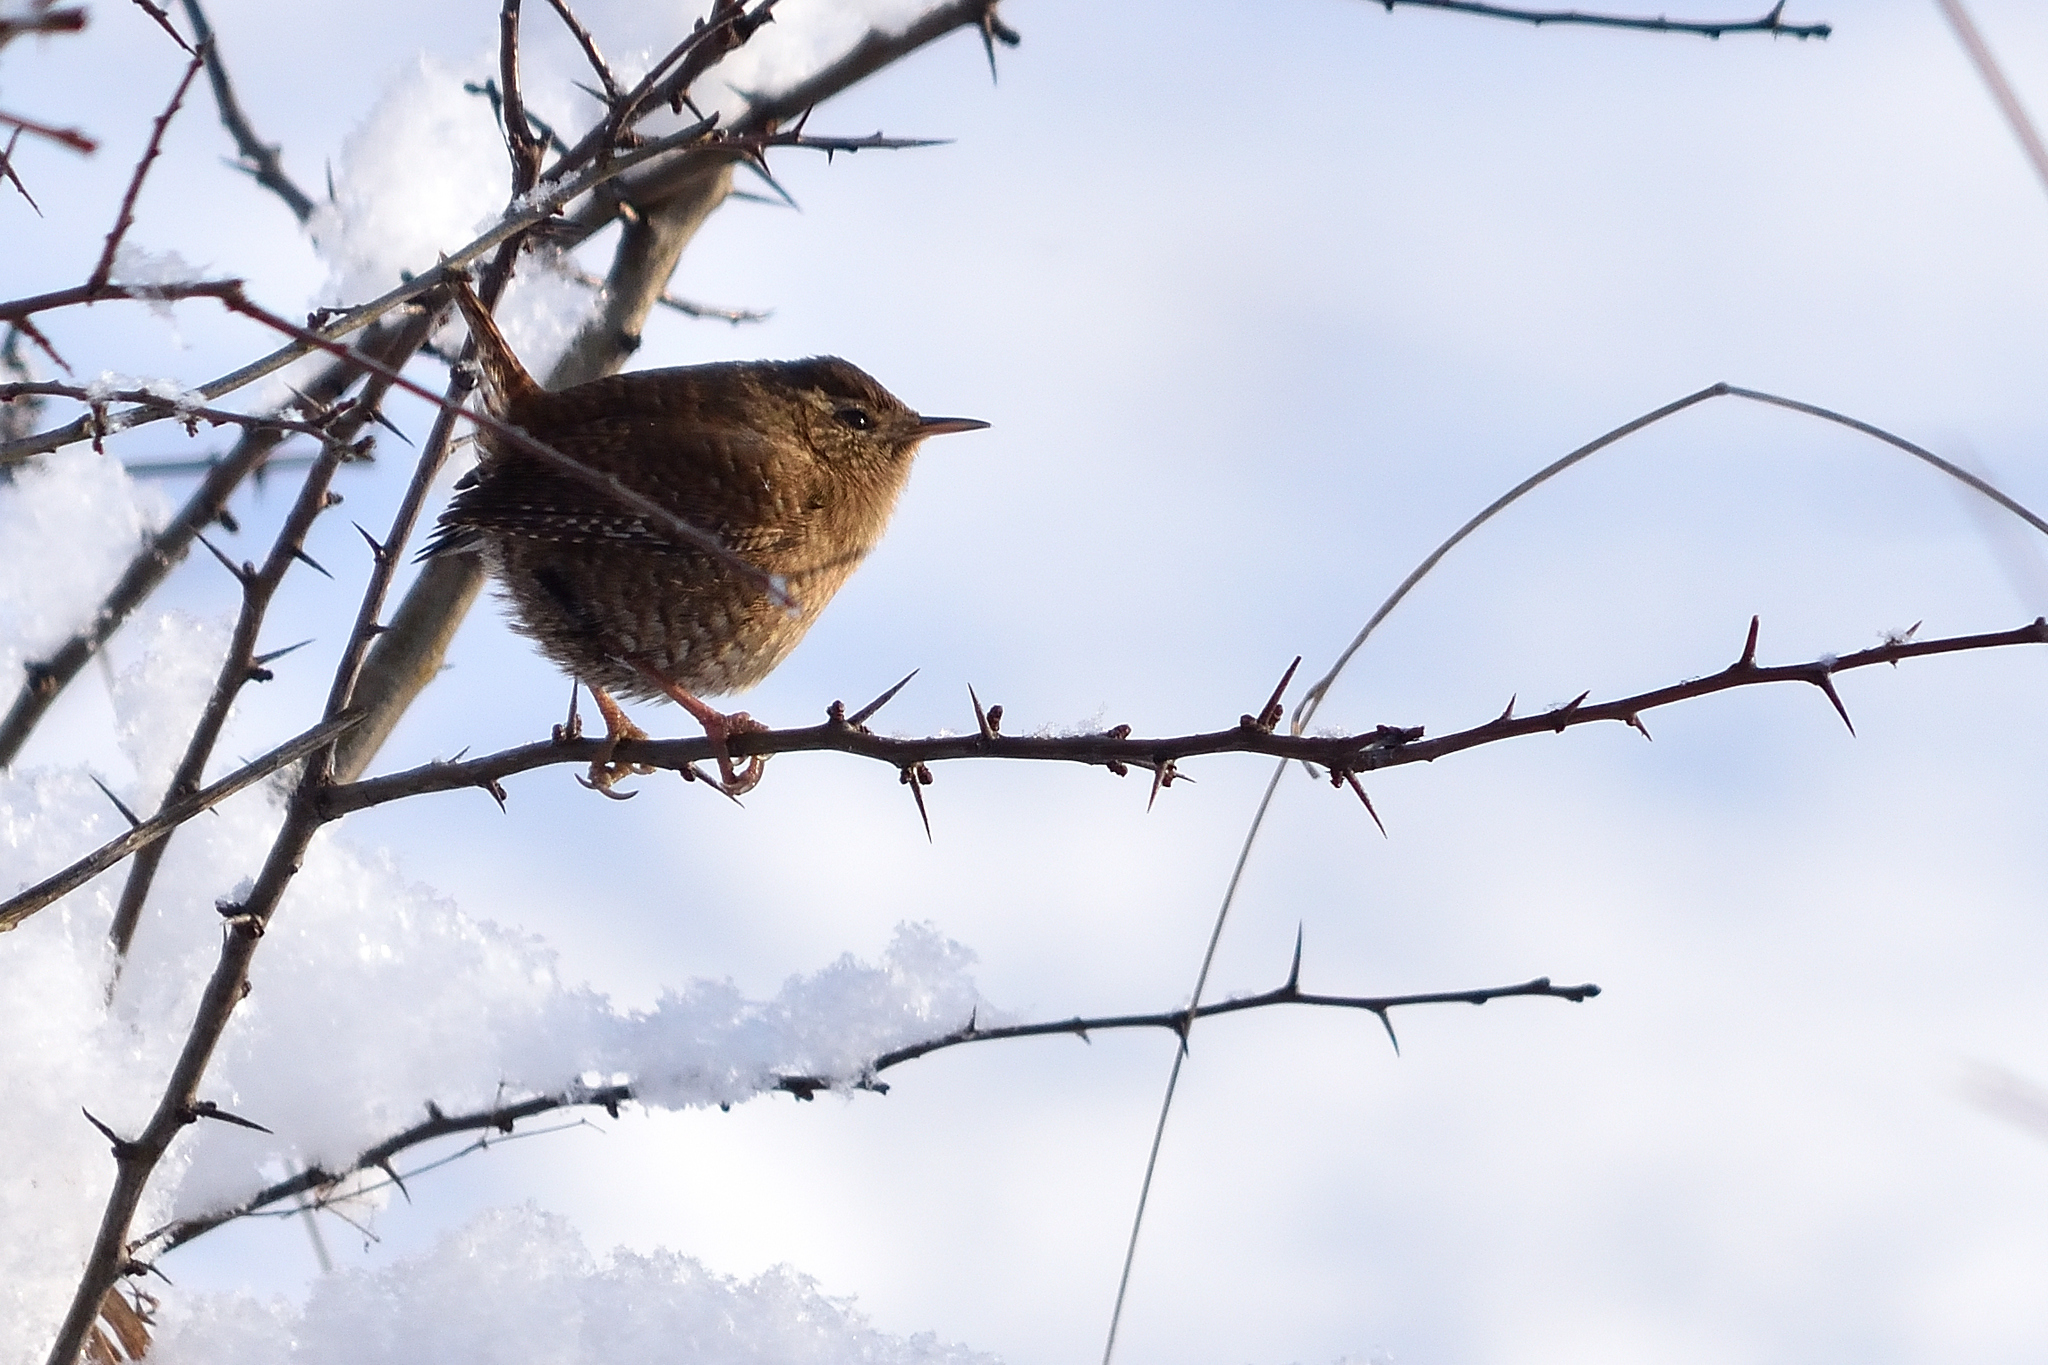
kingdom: Animalia
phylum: Chordata
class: Aves
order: Passeriformes
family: Troglodytidae
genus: Troglodytes
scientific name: Troglodytes troglodytes
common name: Eurasian wren
